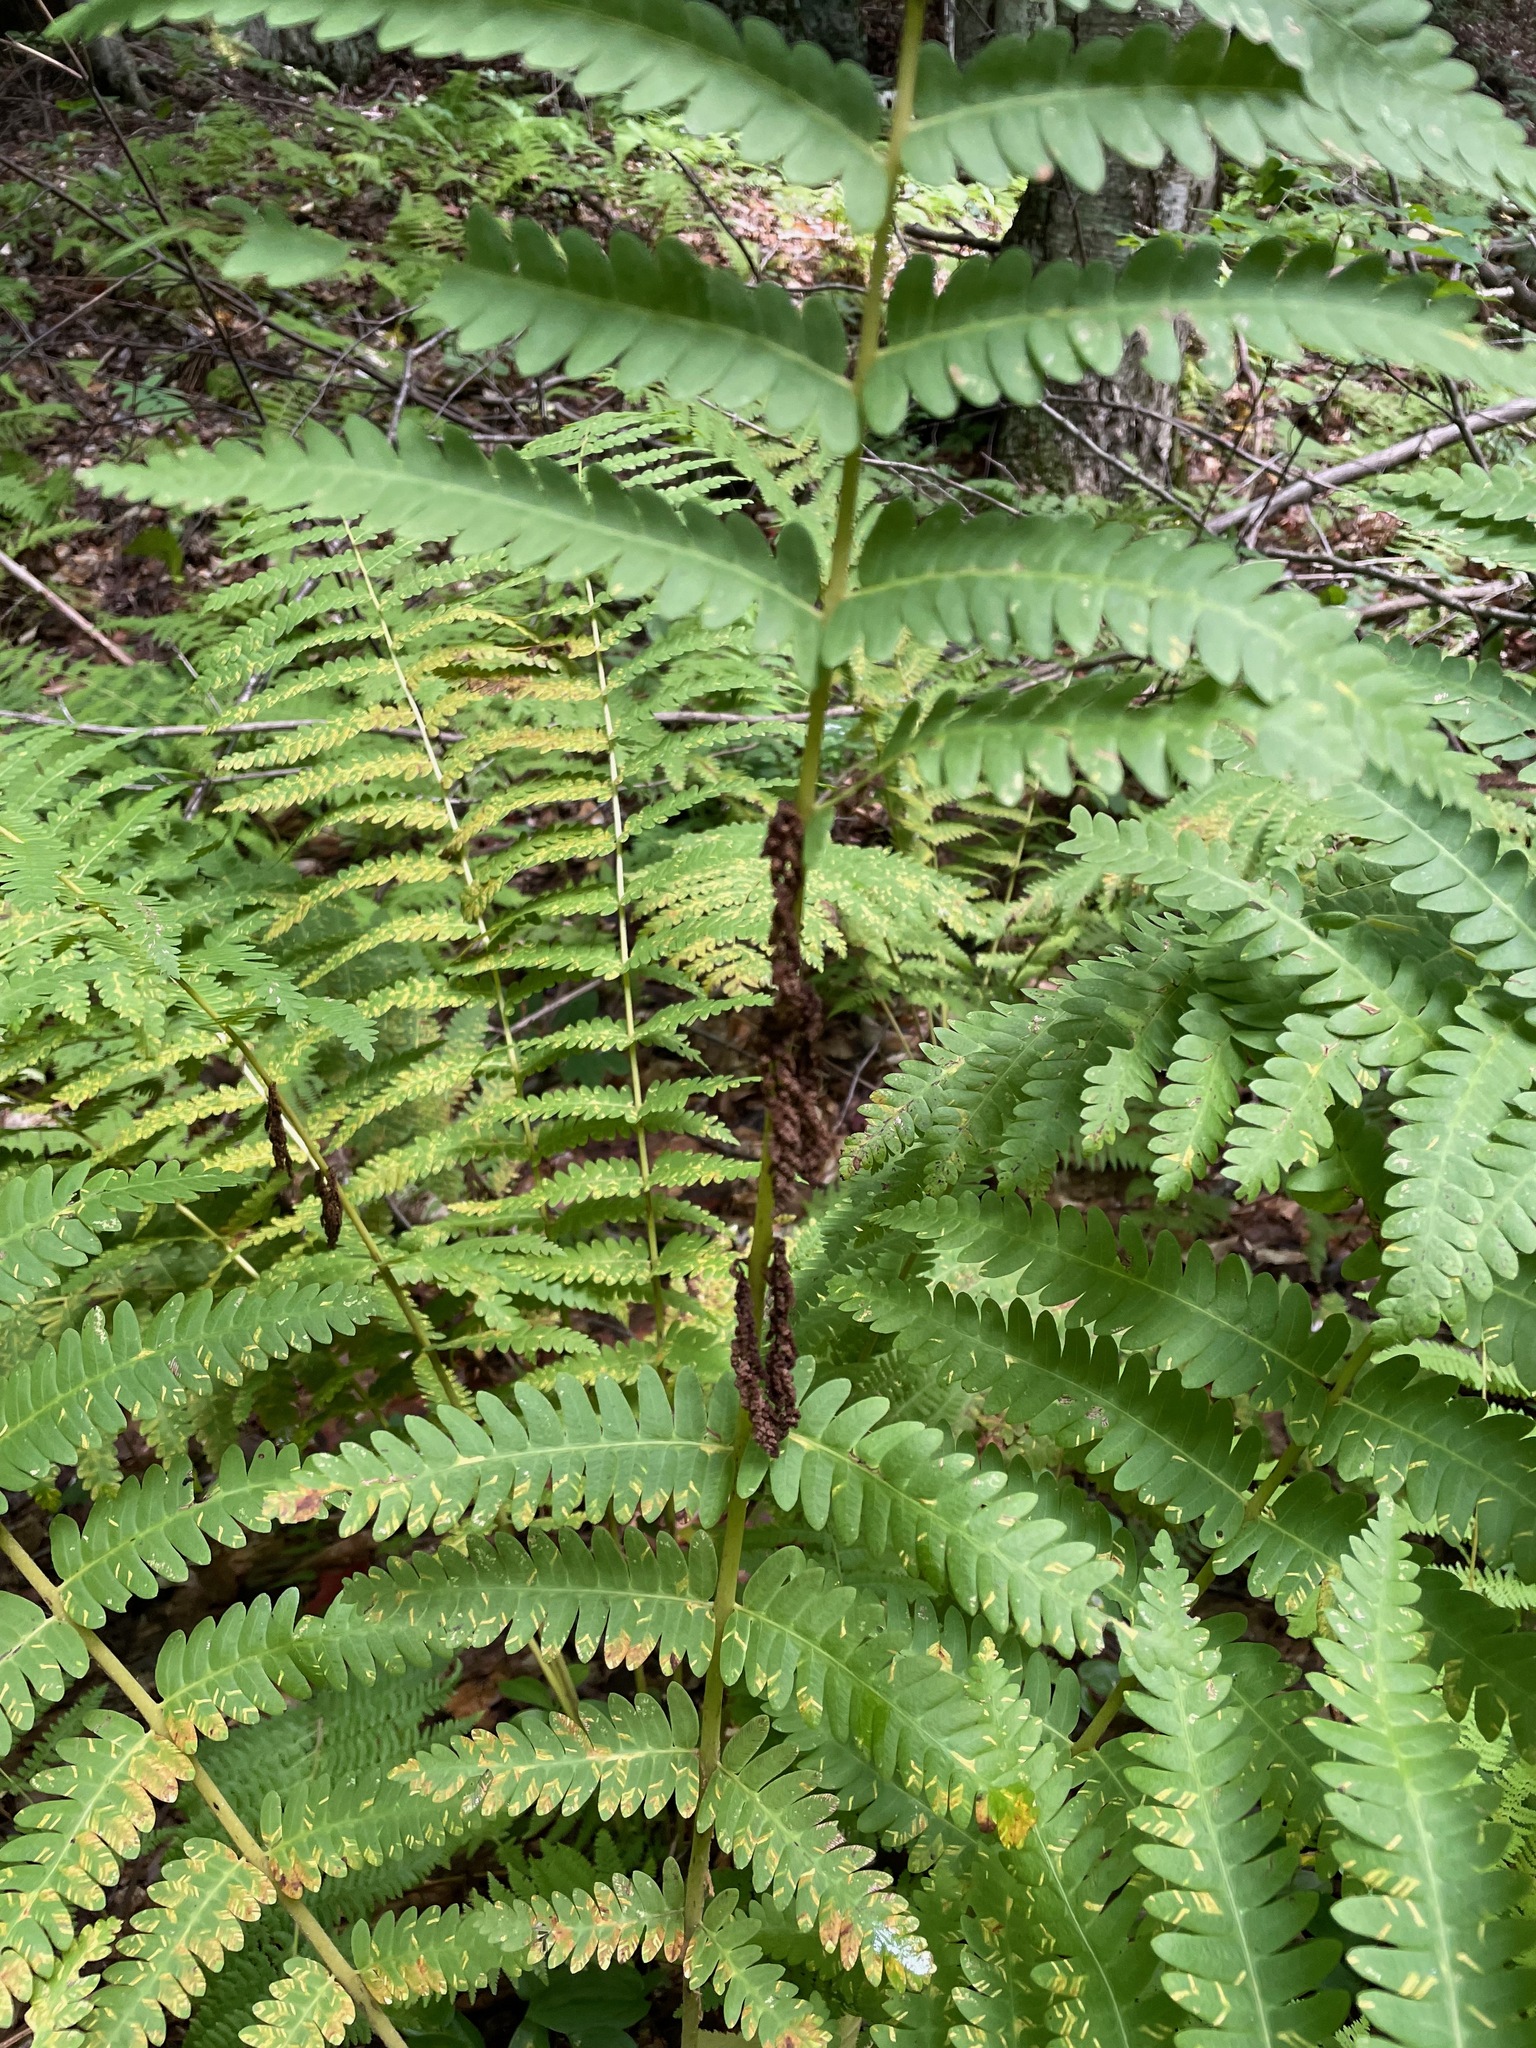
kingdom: Plantae
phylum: Tracheophyta
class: Polypodiopsida
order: Osmundales
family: Osmundaceae
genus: Claytosmunda
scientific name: Claytosmunda claytoniana
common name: Clayton's fern
